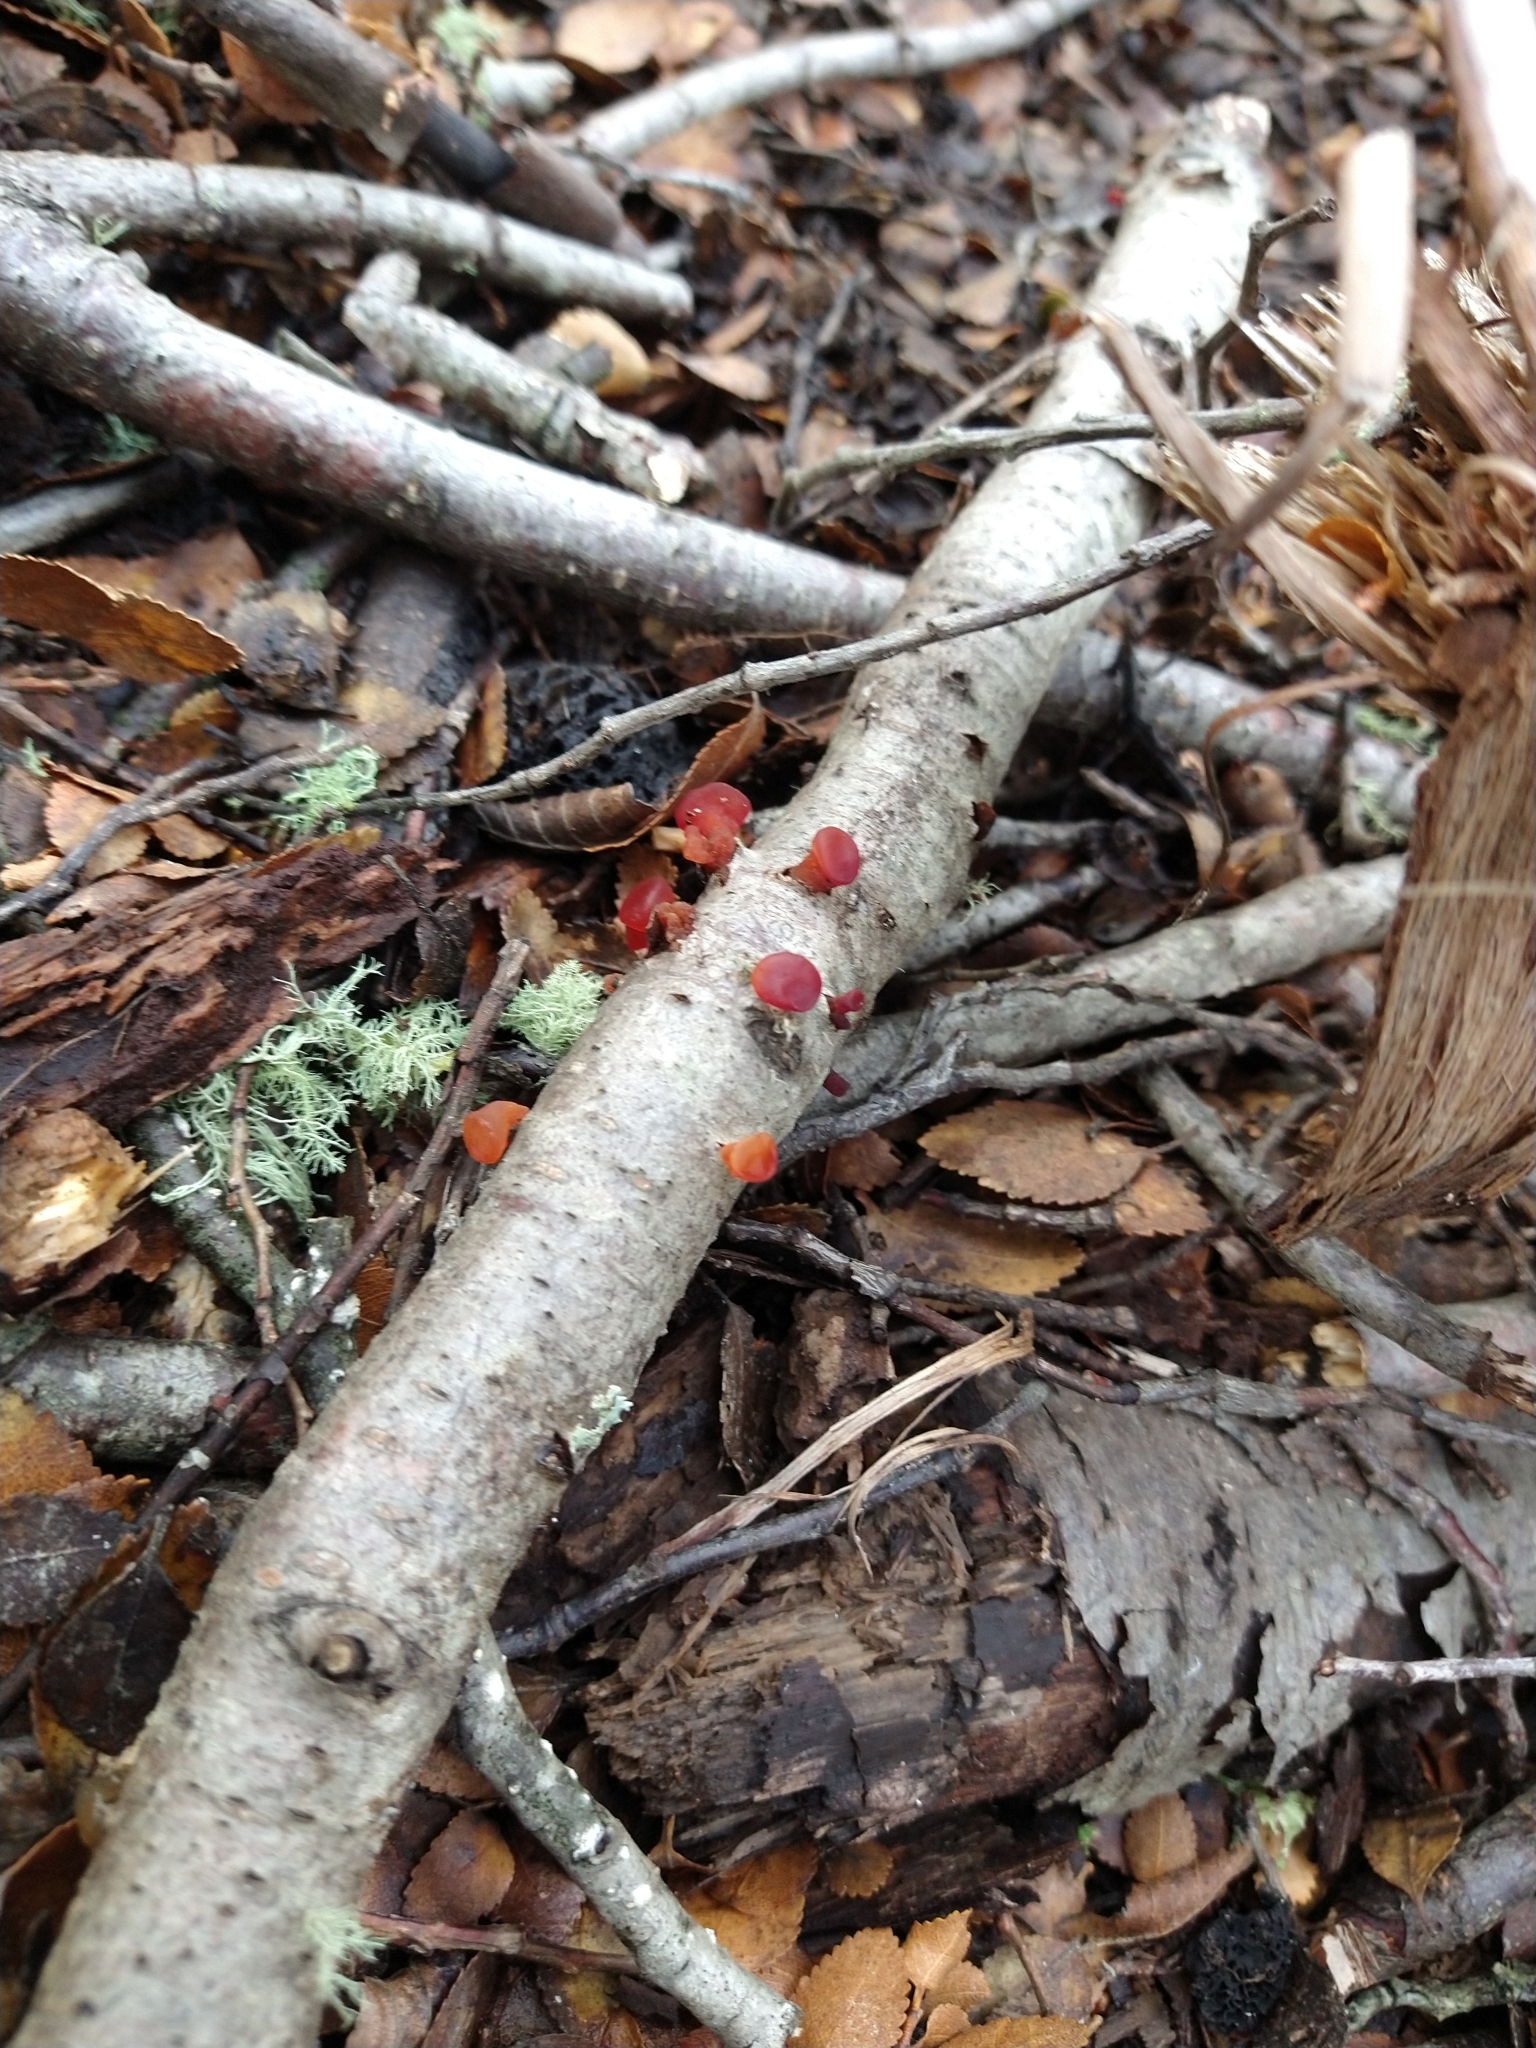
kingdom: Fungi
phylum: Basidiomycota
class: Dacrymycetes
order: Dacrymycetales
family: Dacrymycetaceae
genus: Guepiniopsis
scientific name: Guepiniopsis alpina
